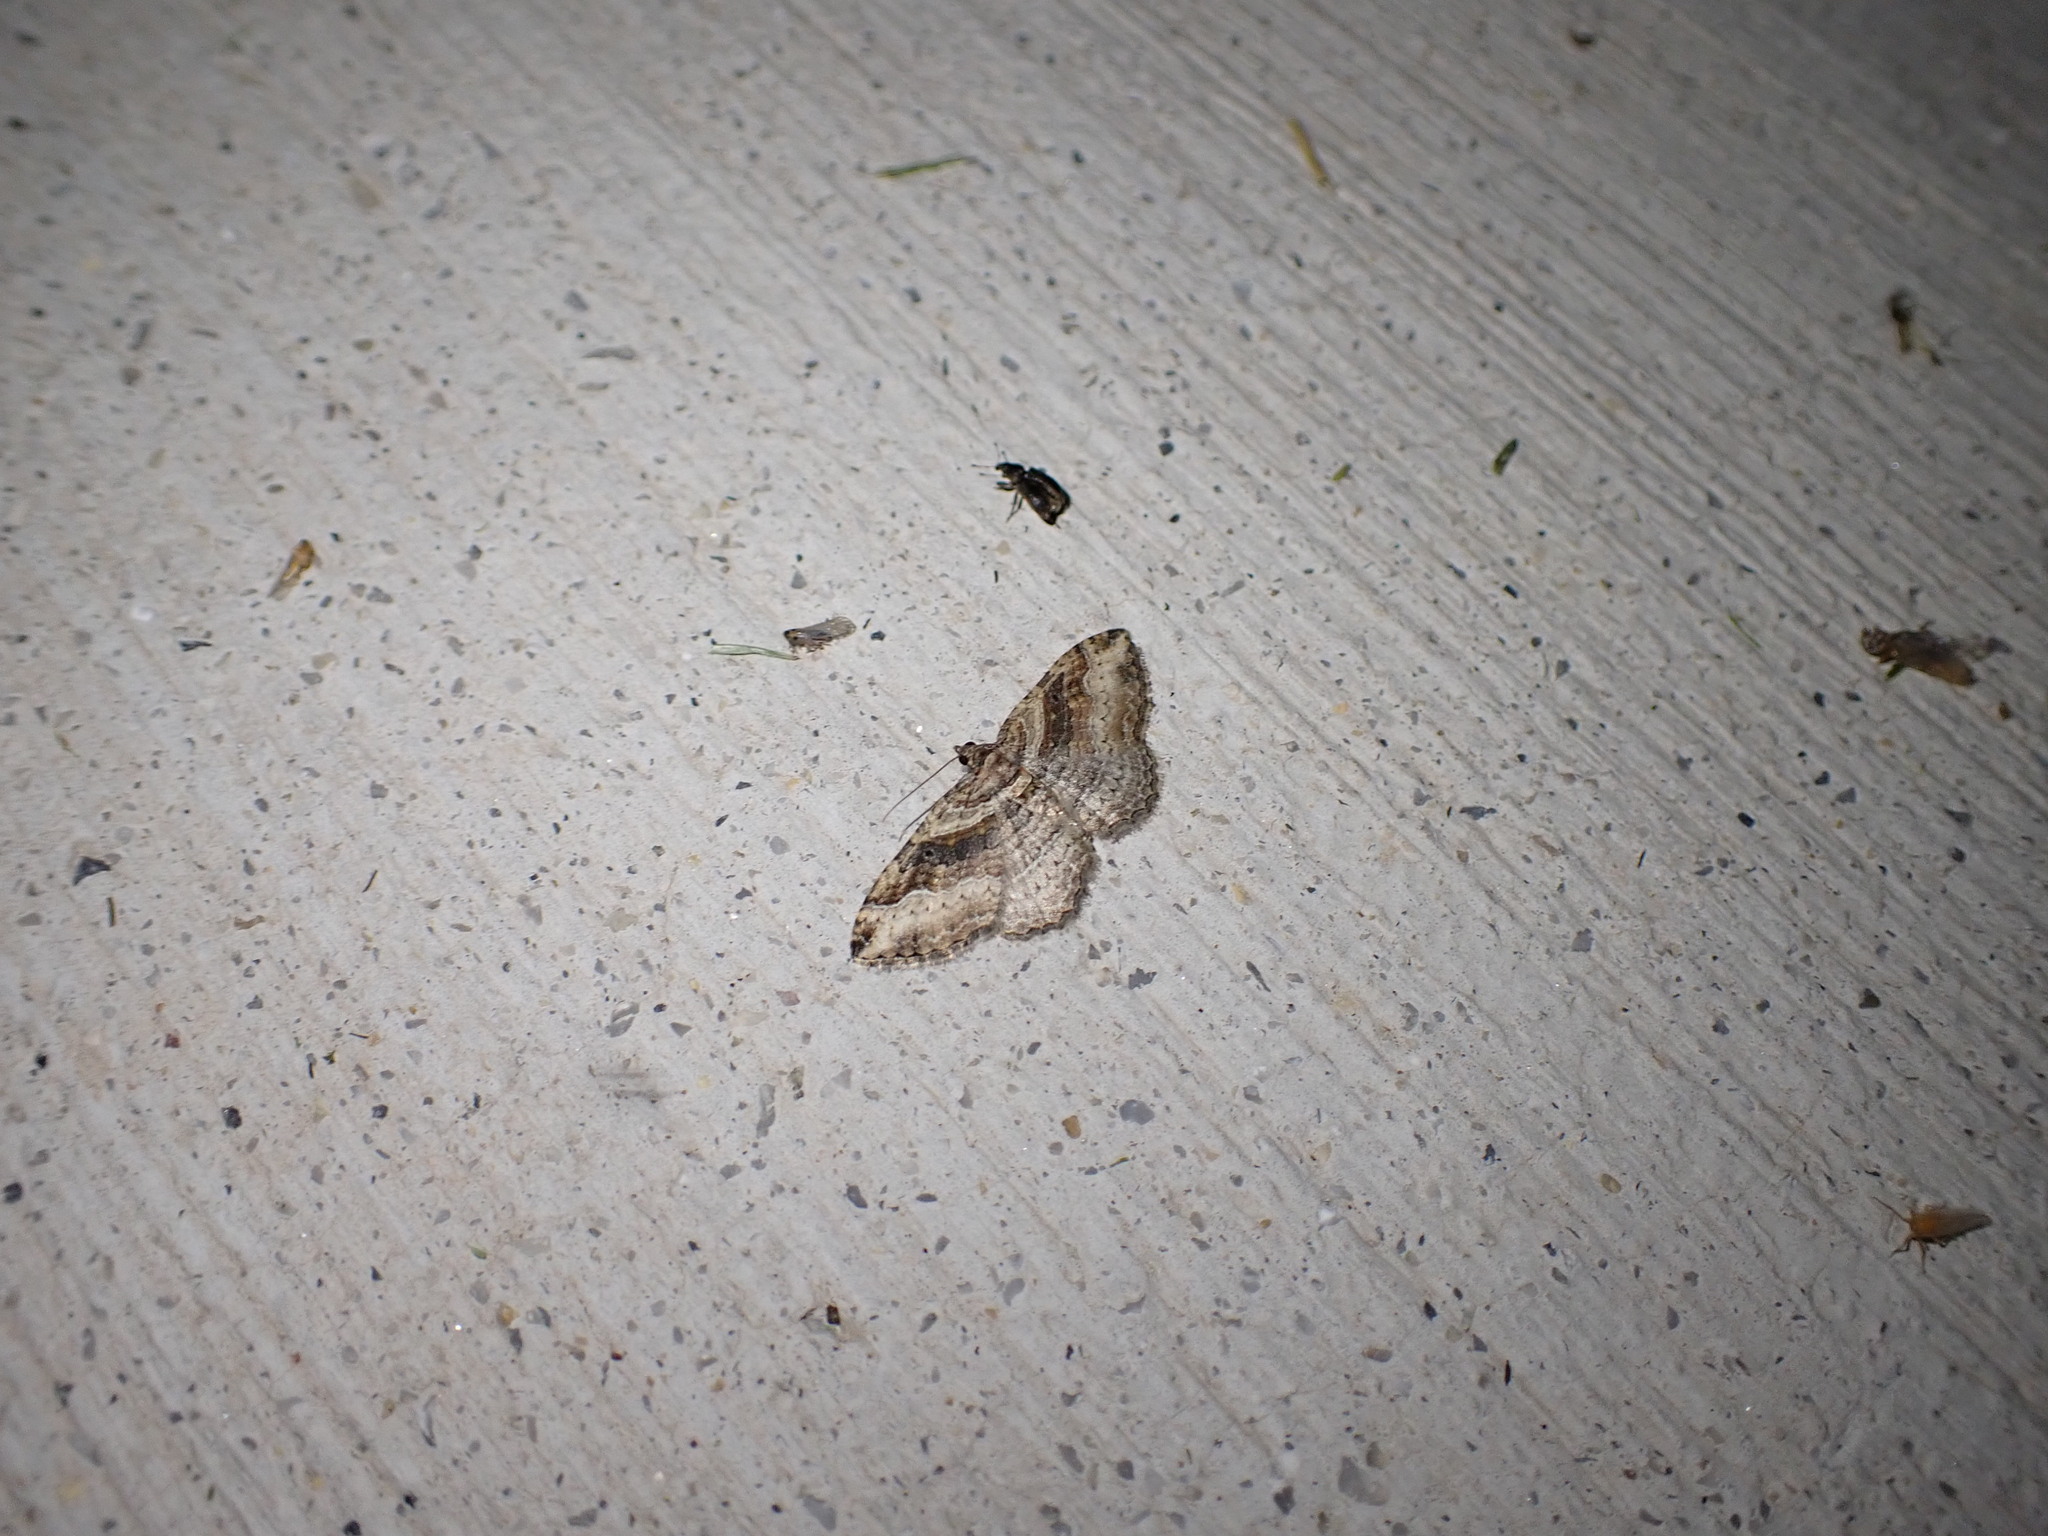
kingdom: Animalia
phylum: Arthropoda
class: Insecta
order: Lepidoptera
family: Geometridae
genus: Costaconvexa
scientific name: Costaconvexa centrostrigaria
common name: Bent-line carpet
